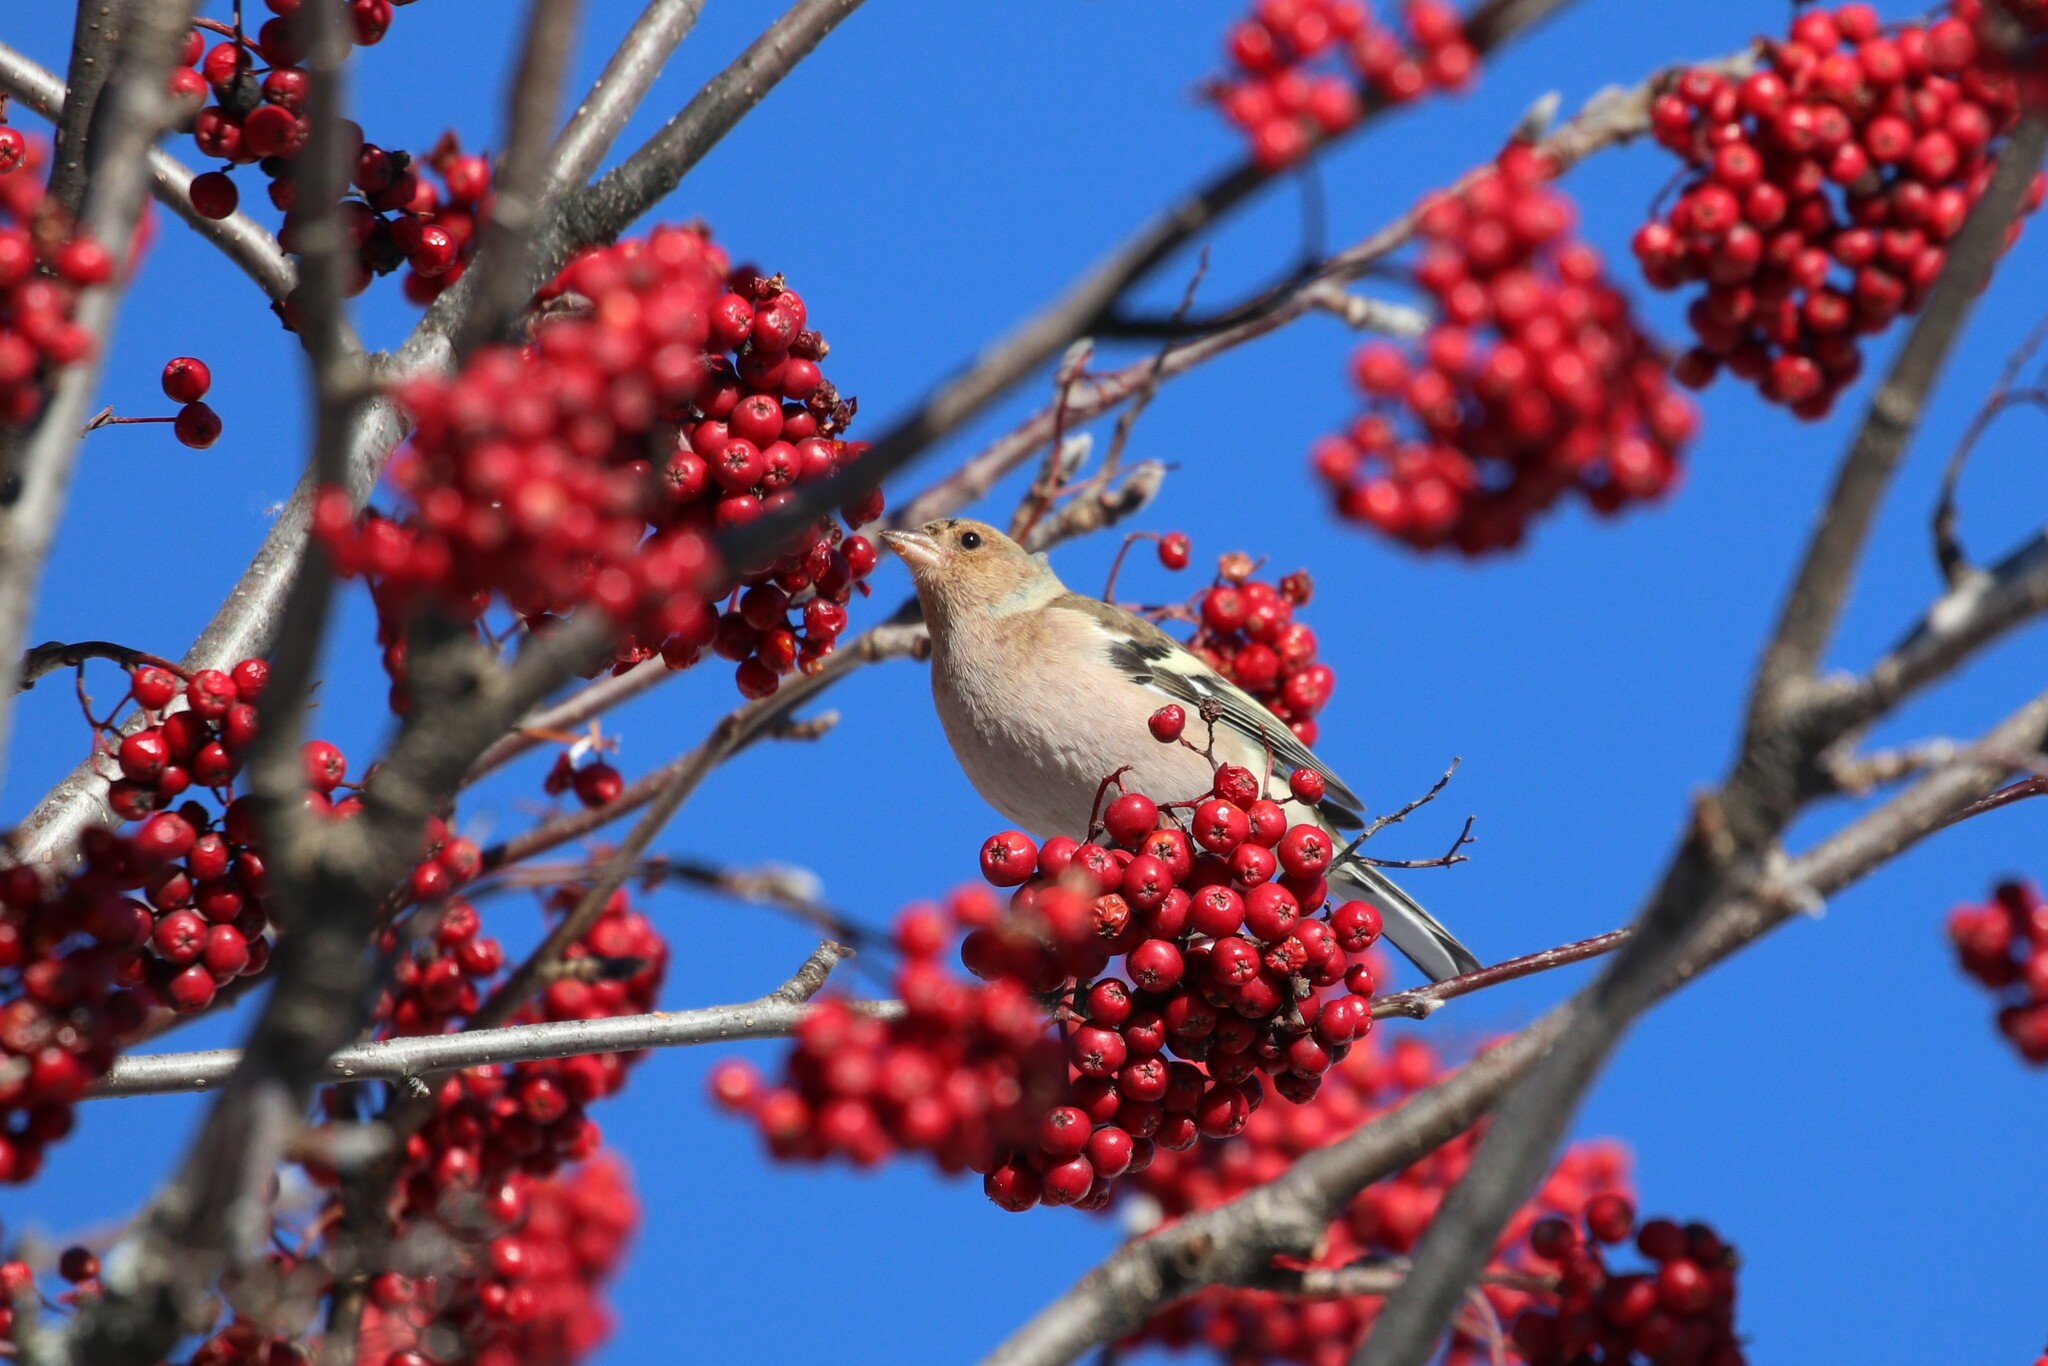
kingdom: Animalia
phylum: Chordata
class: Aves
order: Passeriformes
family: Fringillidae
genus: Fringilla
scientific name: Fringilla coelebs
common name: Common chaffinch
